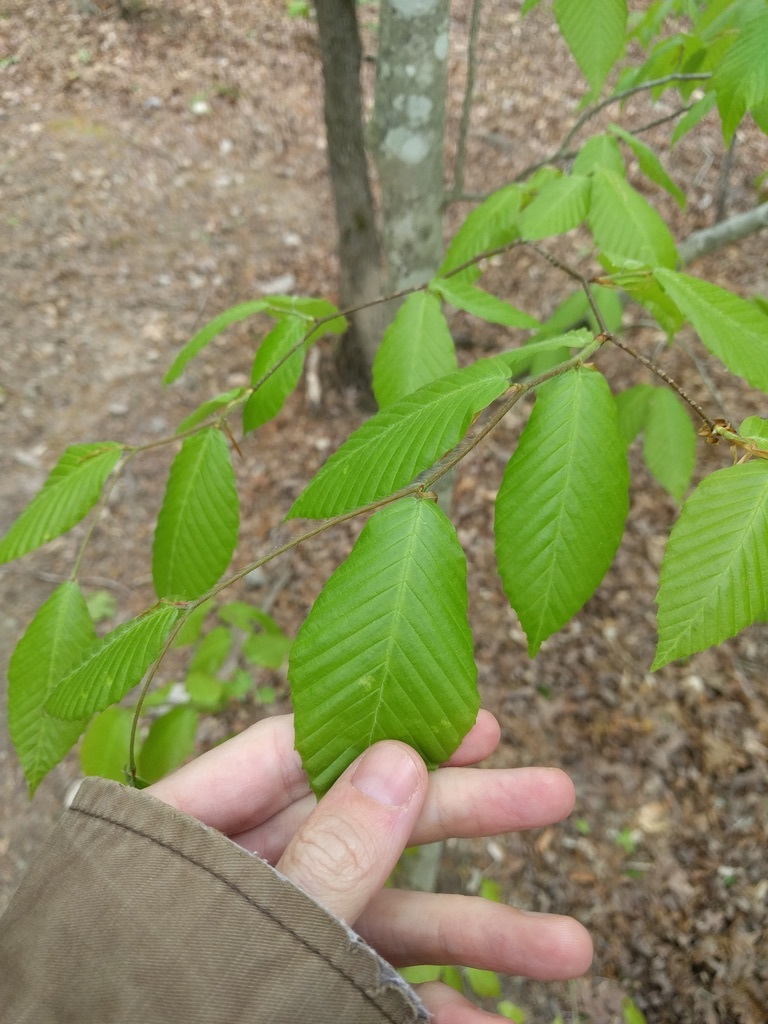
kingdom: Plantae
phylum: Tracheophyta
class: Magnoliopsida
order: Fagales
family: Fagaceae
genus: Fagus
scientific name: Fagus grandifolia
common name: American beech
